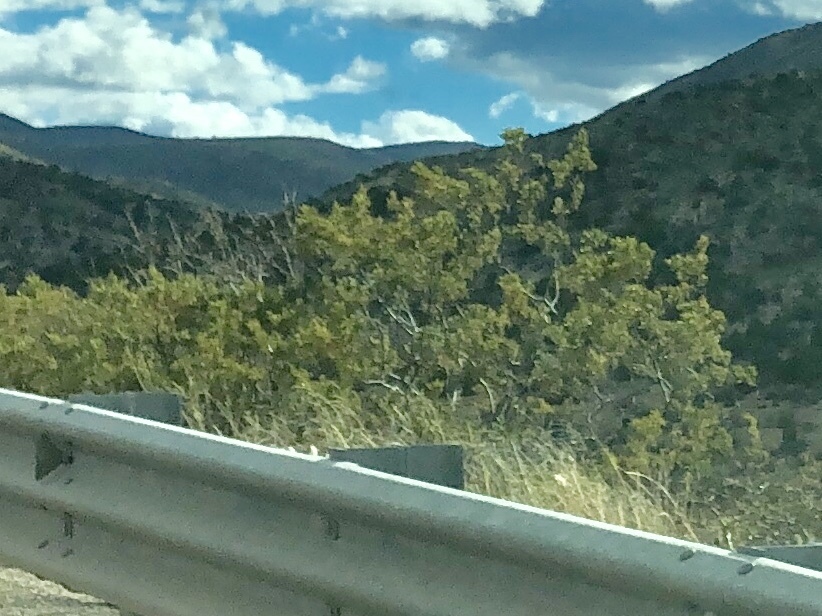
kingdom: Plantae
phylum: Tracheophyta
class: Magnoliopsida
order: Zygophyllales
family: Zygophyllaceae
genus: Larrea
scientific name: Larrea tridentata
